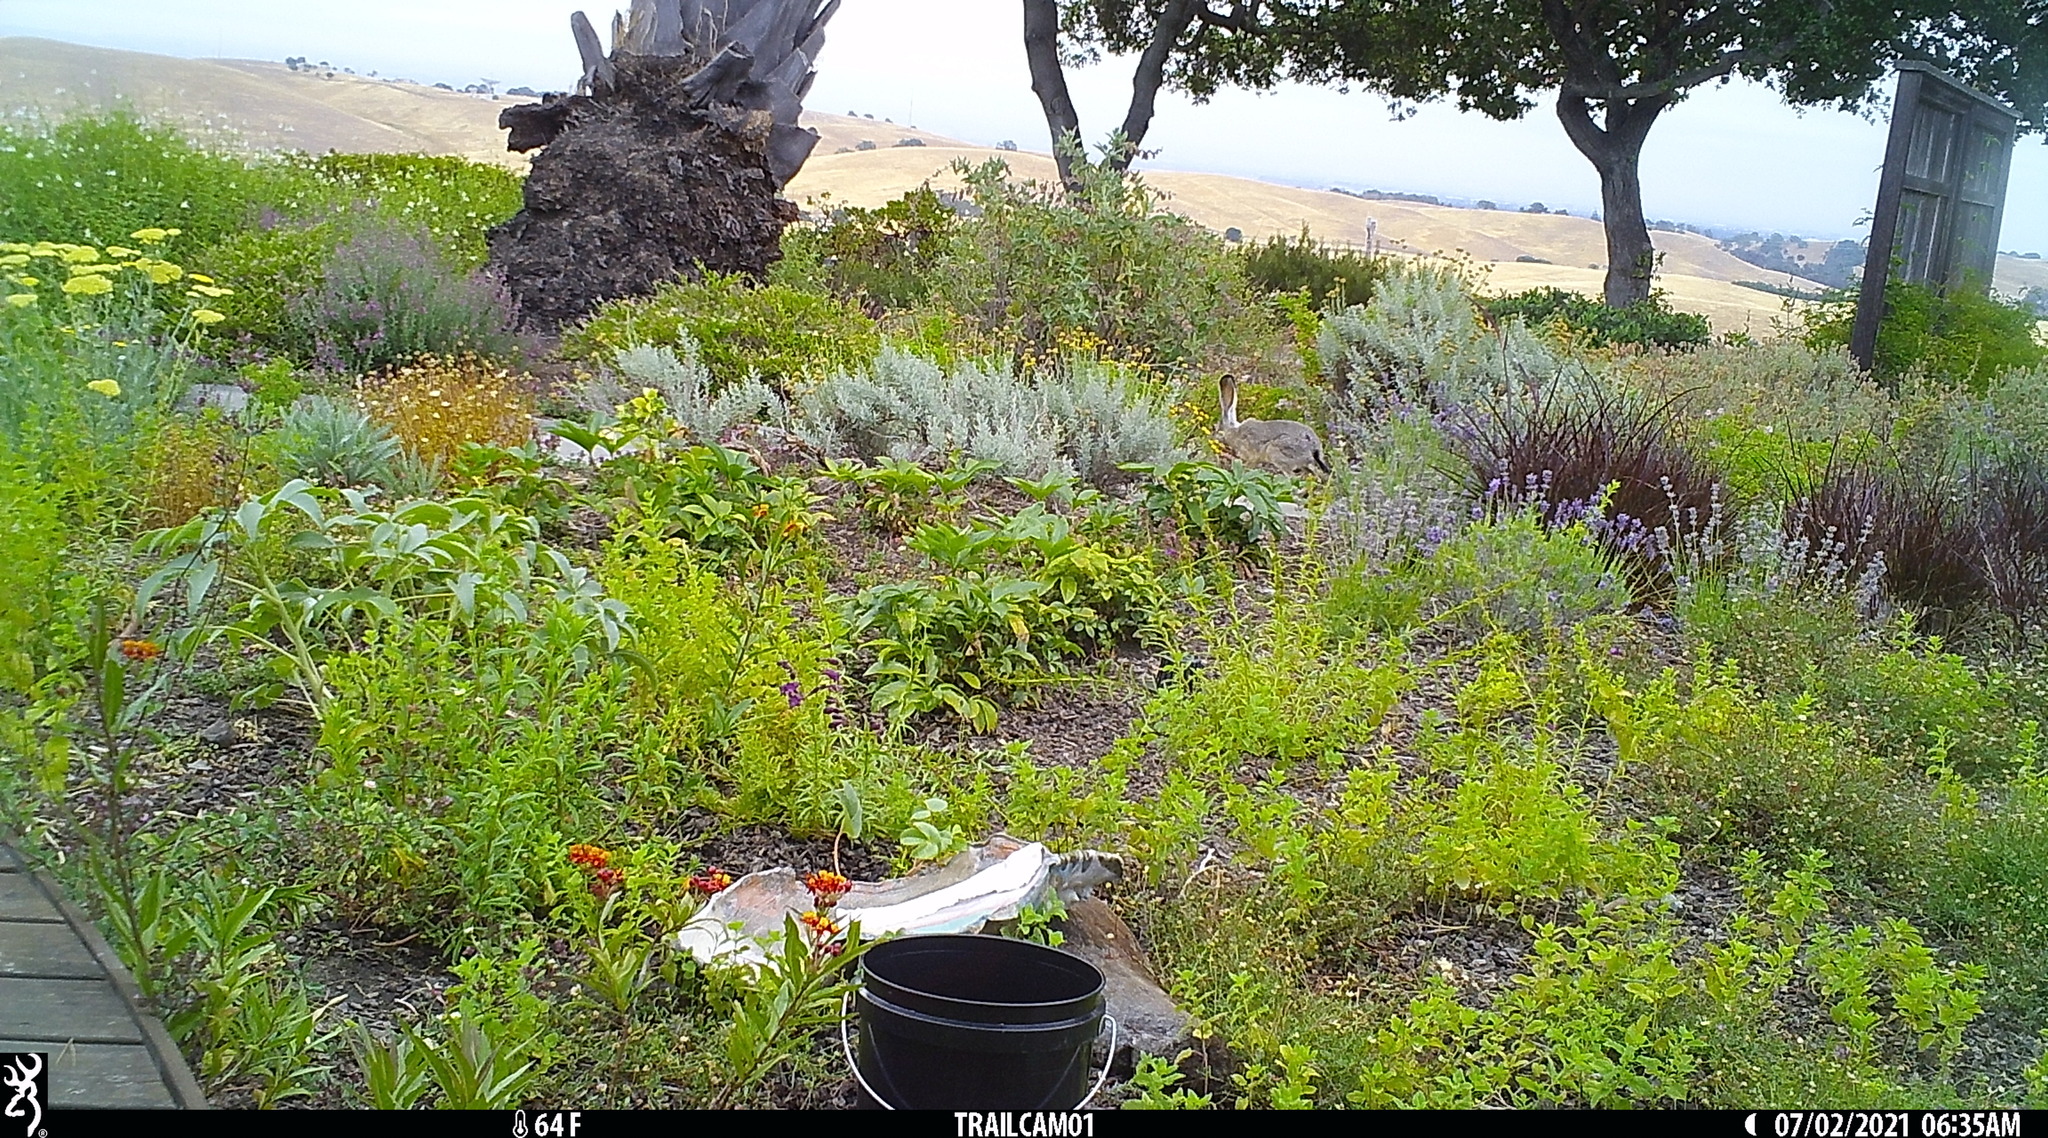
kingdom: Animalia
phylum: Chordata
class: Mammalia
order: Lagomorpha
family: Leporidae
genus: Lepus
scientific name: Lepus californicus
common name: Black-tailed jackrabbit
